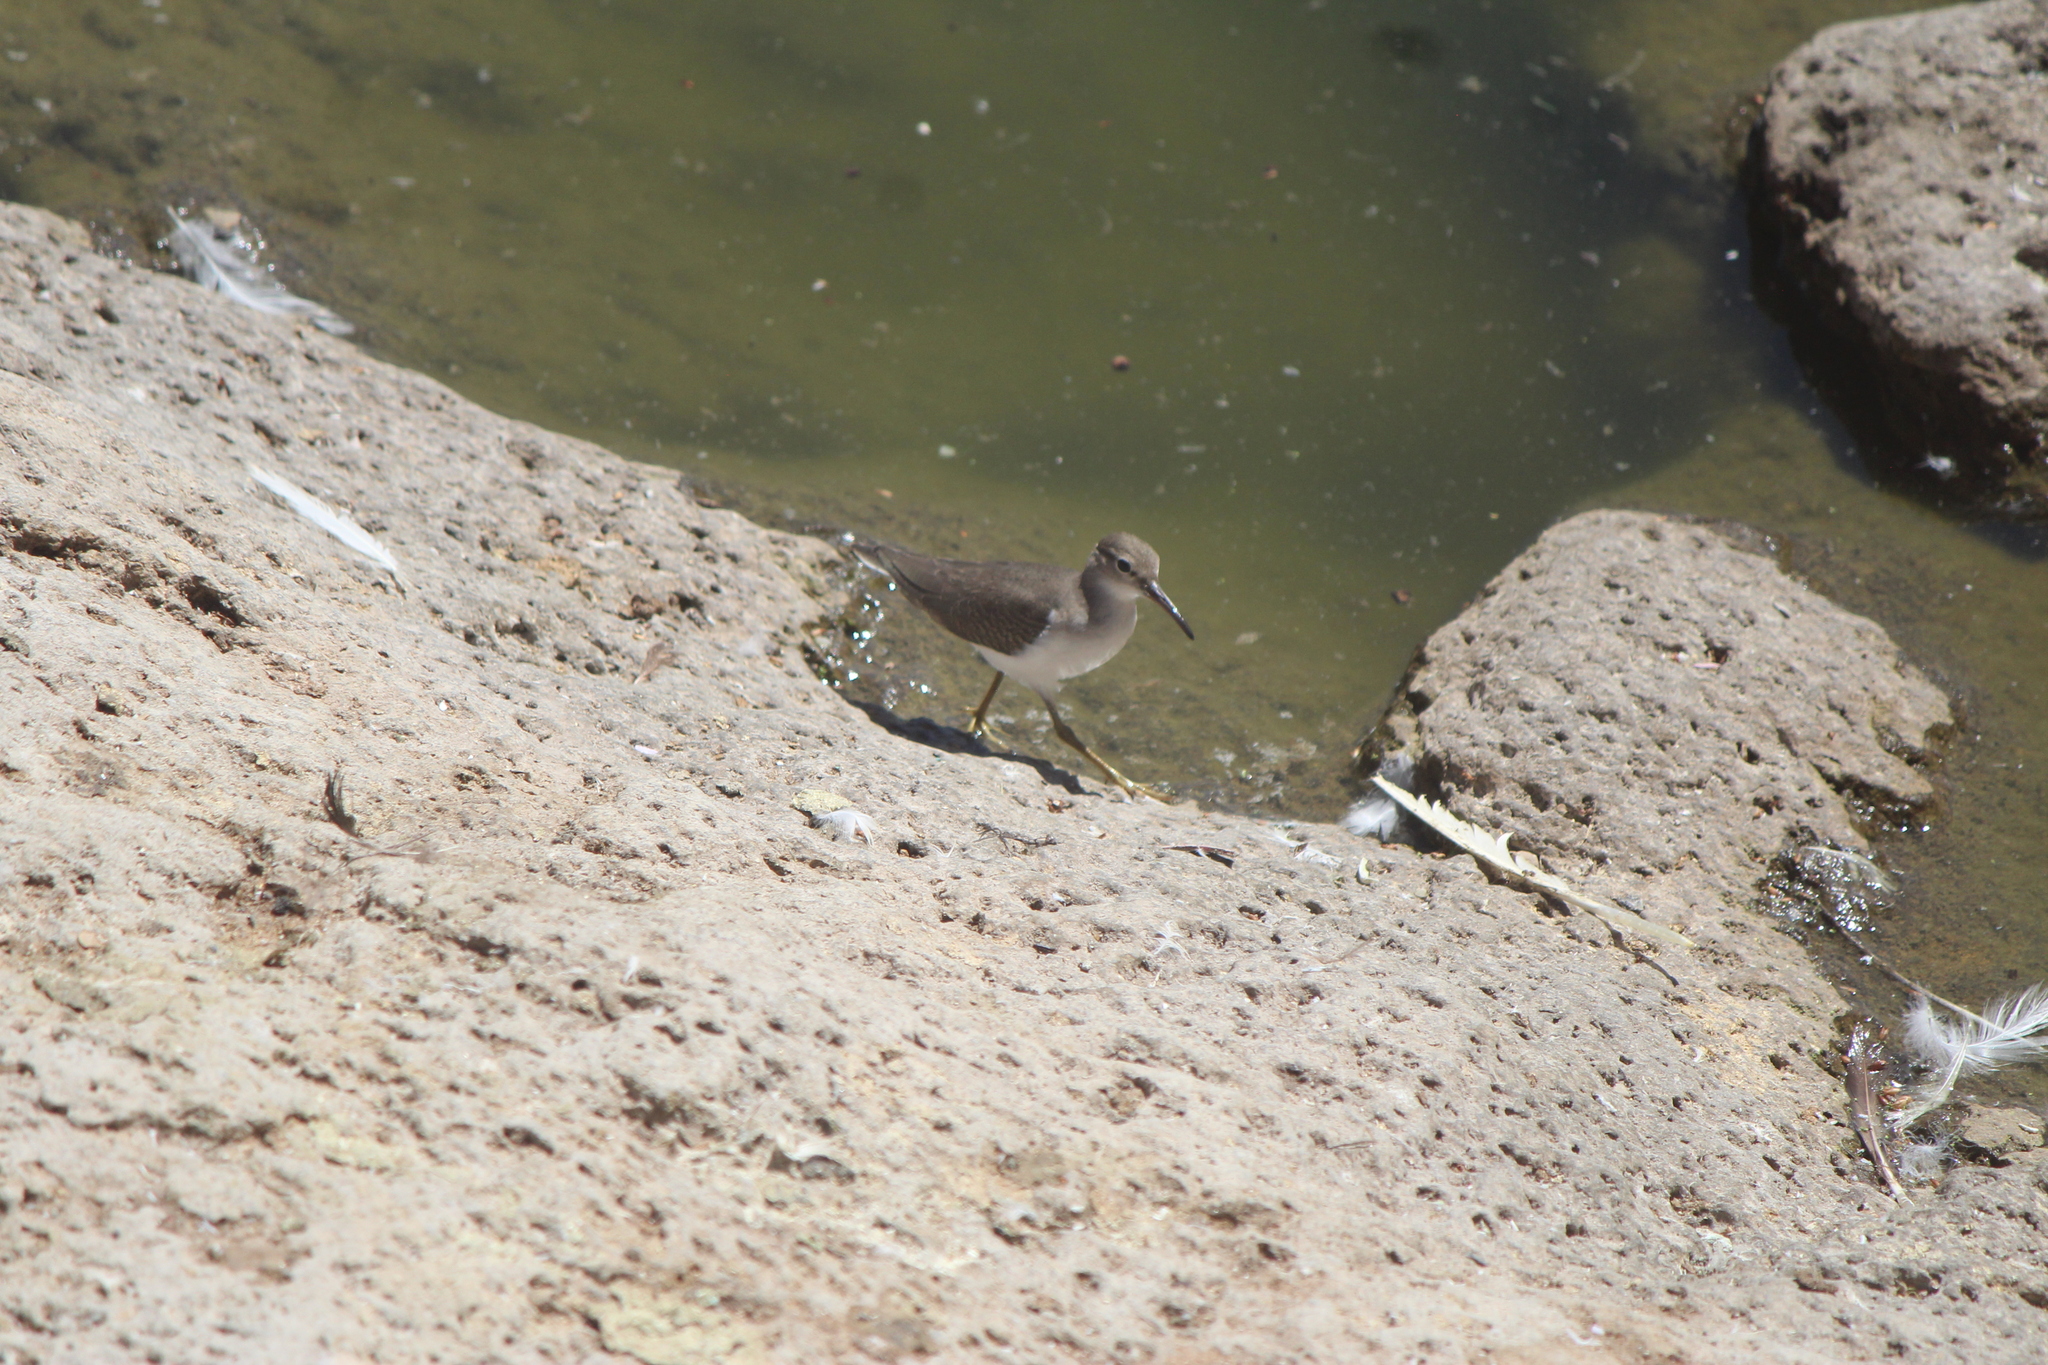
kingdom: Animalia
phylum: Chordata
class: Aves
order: Charadriiformes
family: Scolopacidae
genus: Actitis
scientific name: Actitis macularius
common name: Spotted sandpiper
